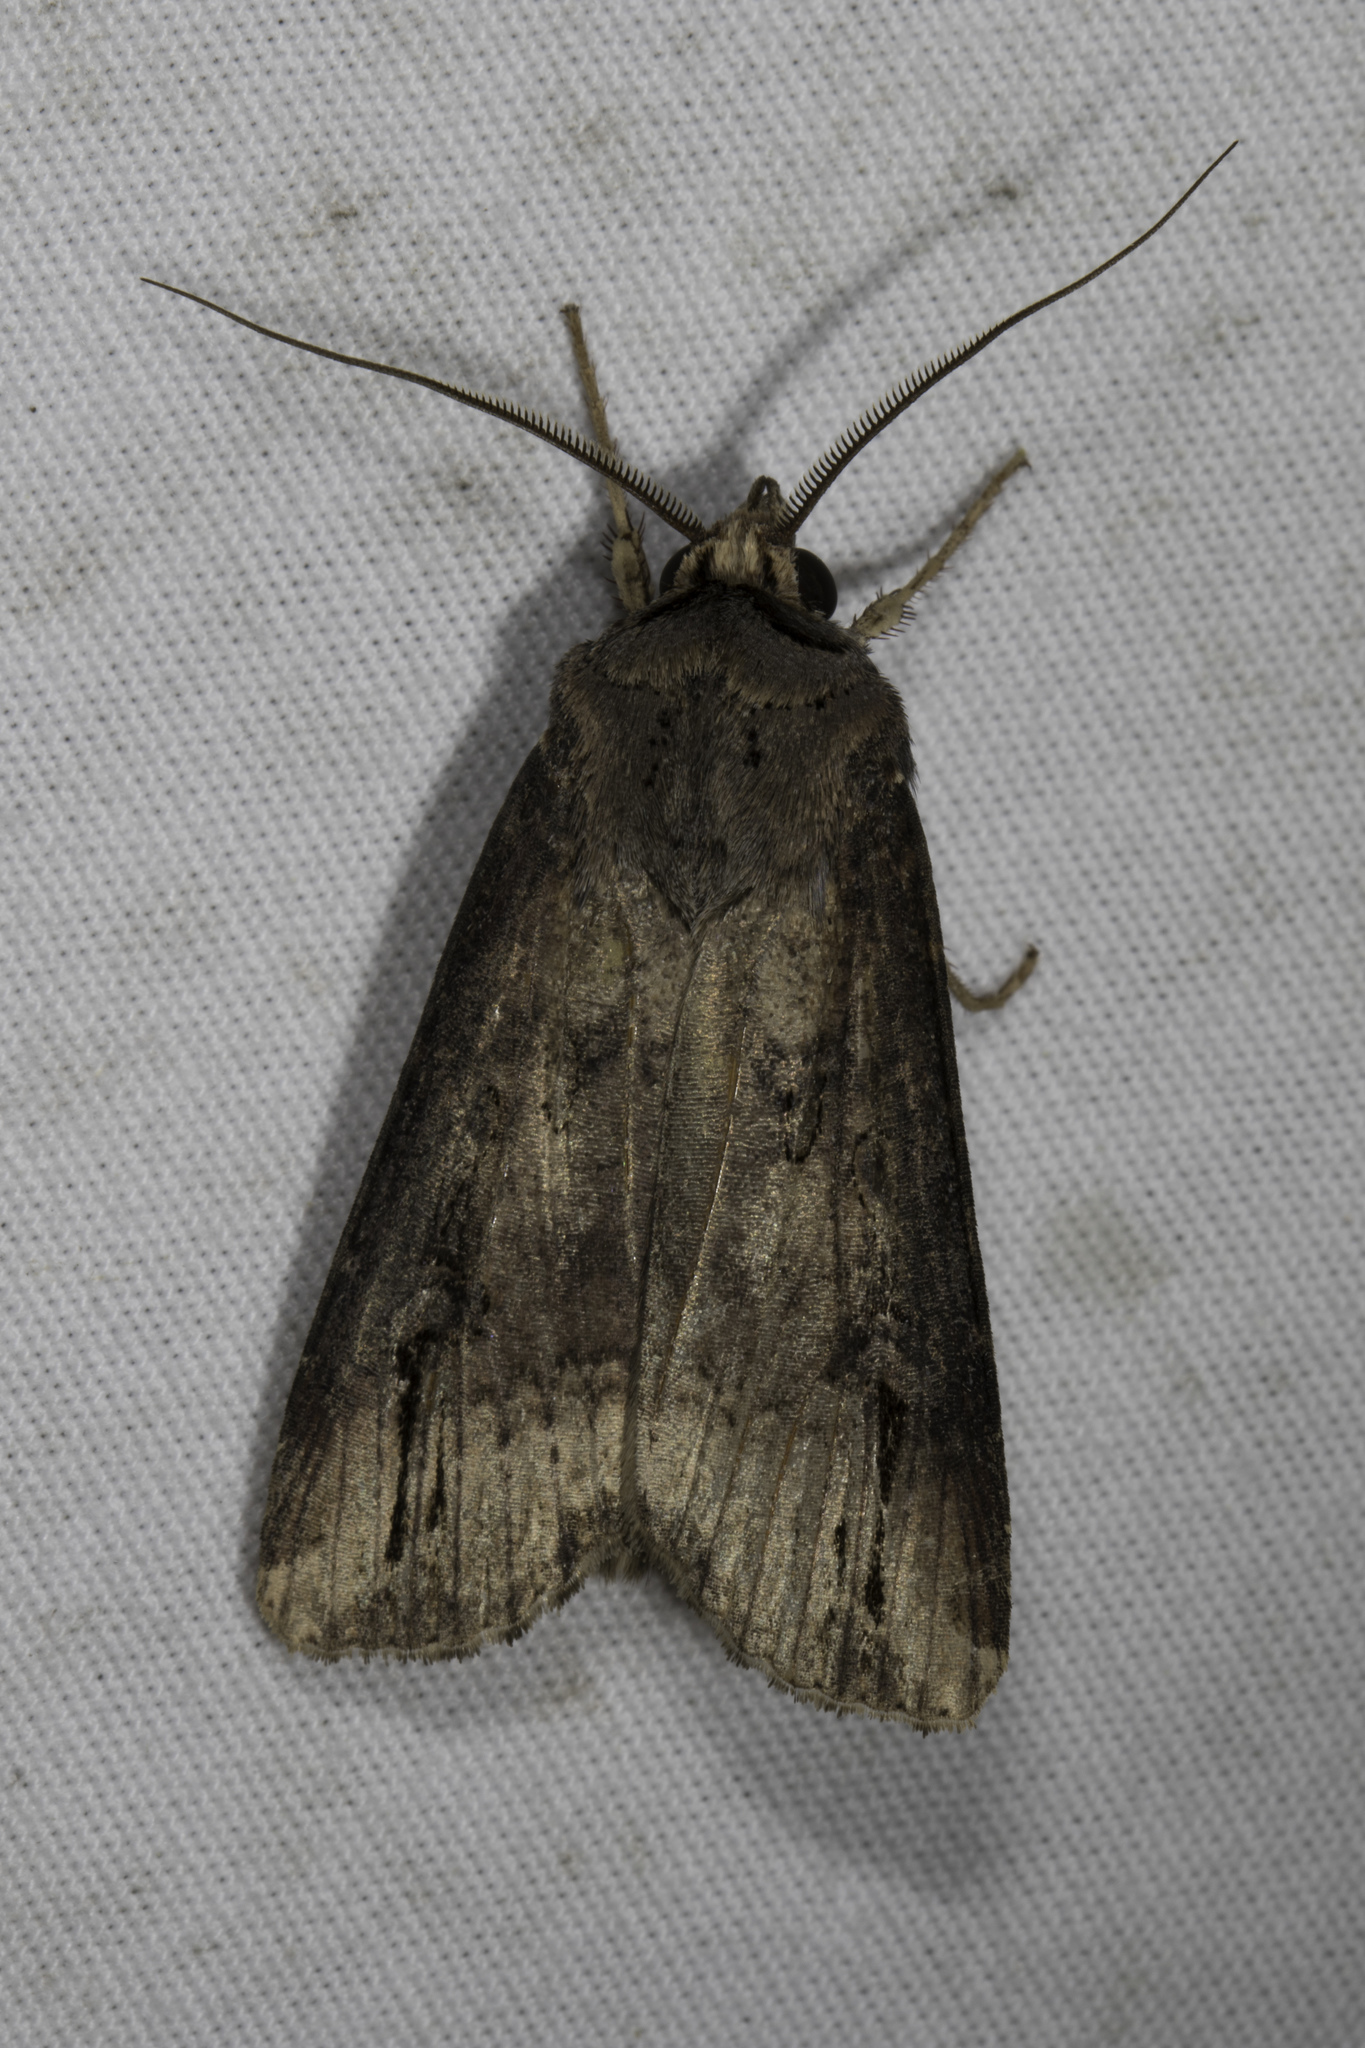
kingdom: Animalia
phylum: Arthropoda
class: Insecta
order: Lepidoptera
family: Noctuidae
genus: Agrotis
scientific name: Agrotis ipsilon
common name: Dark sword-grass
